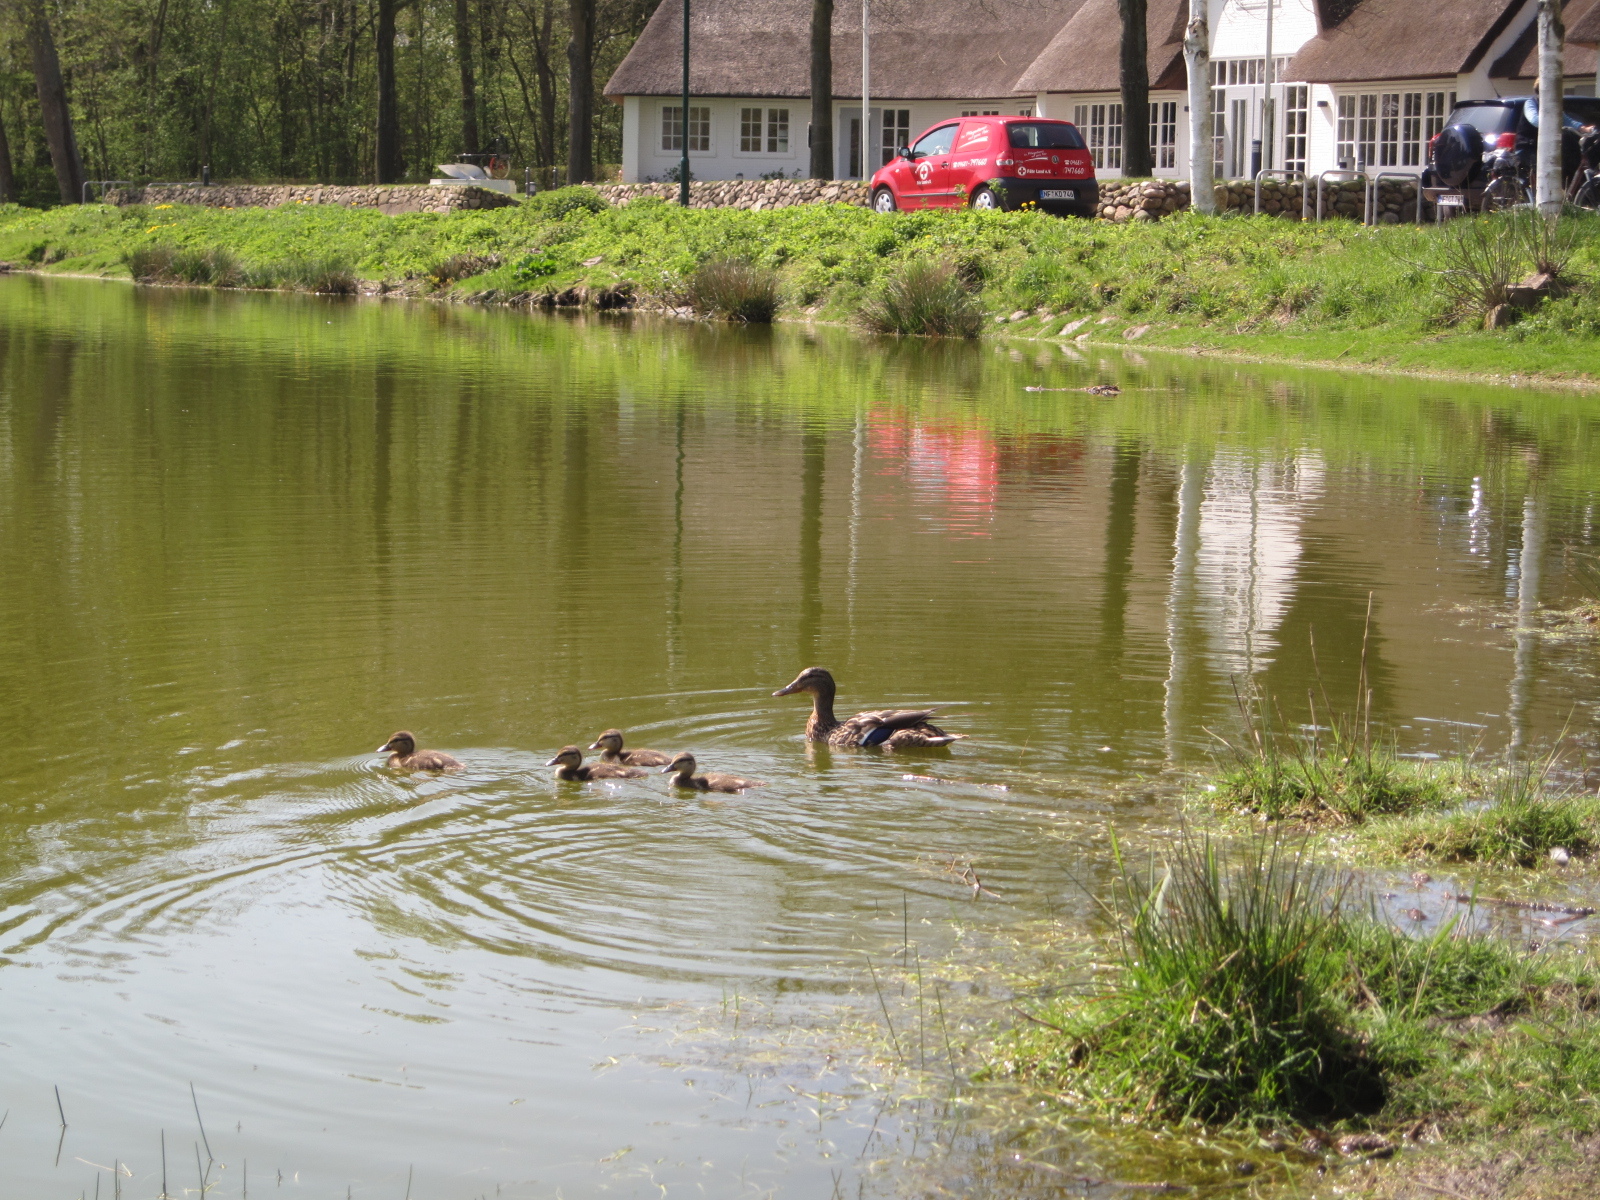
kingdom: Animalia
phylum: Chordata
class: Aves
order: Anseriformes
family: Anatidae
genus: Anas
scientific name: Anas platyrhynchos
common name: Mallard
